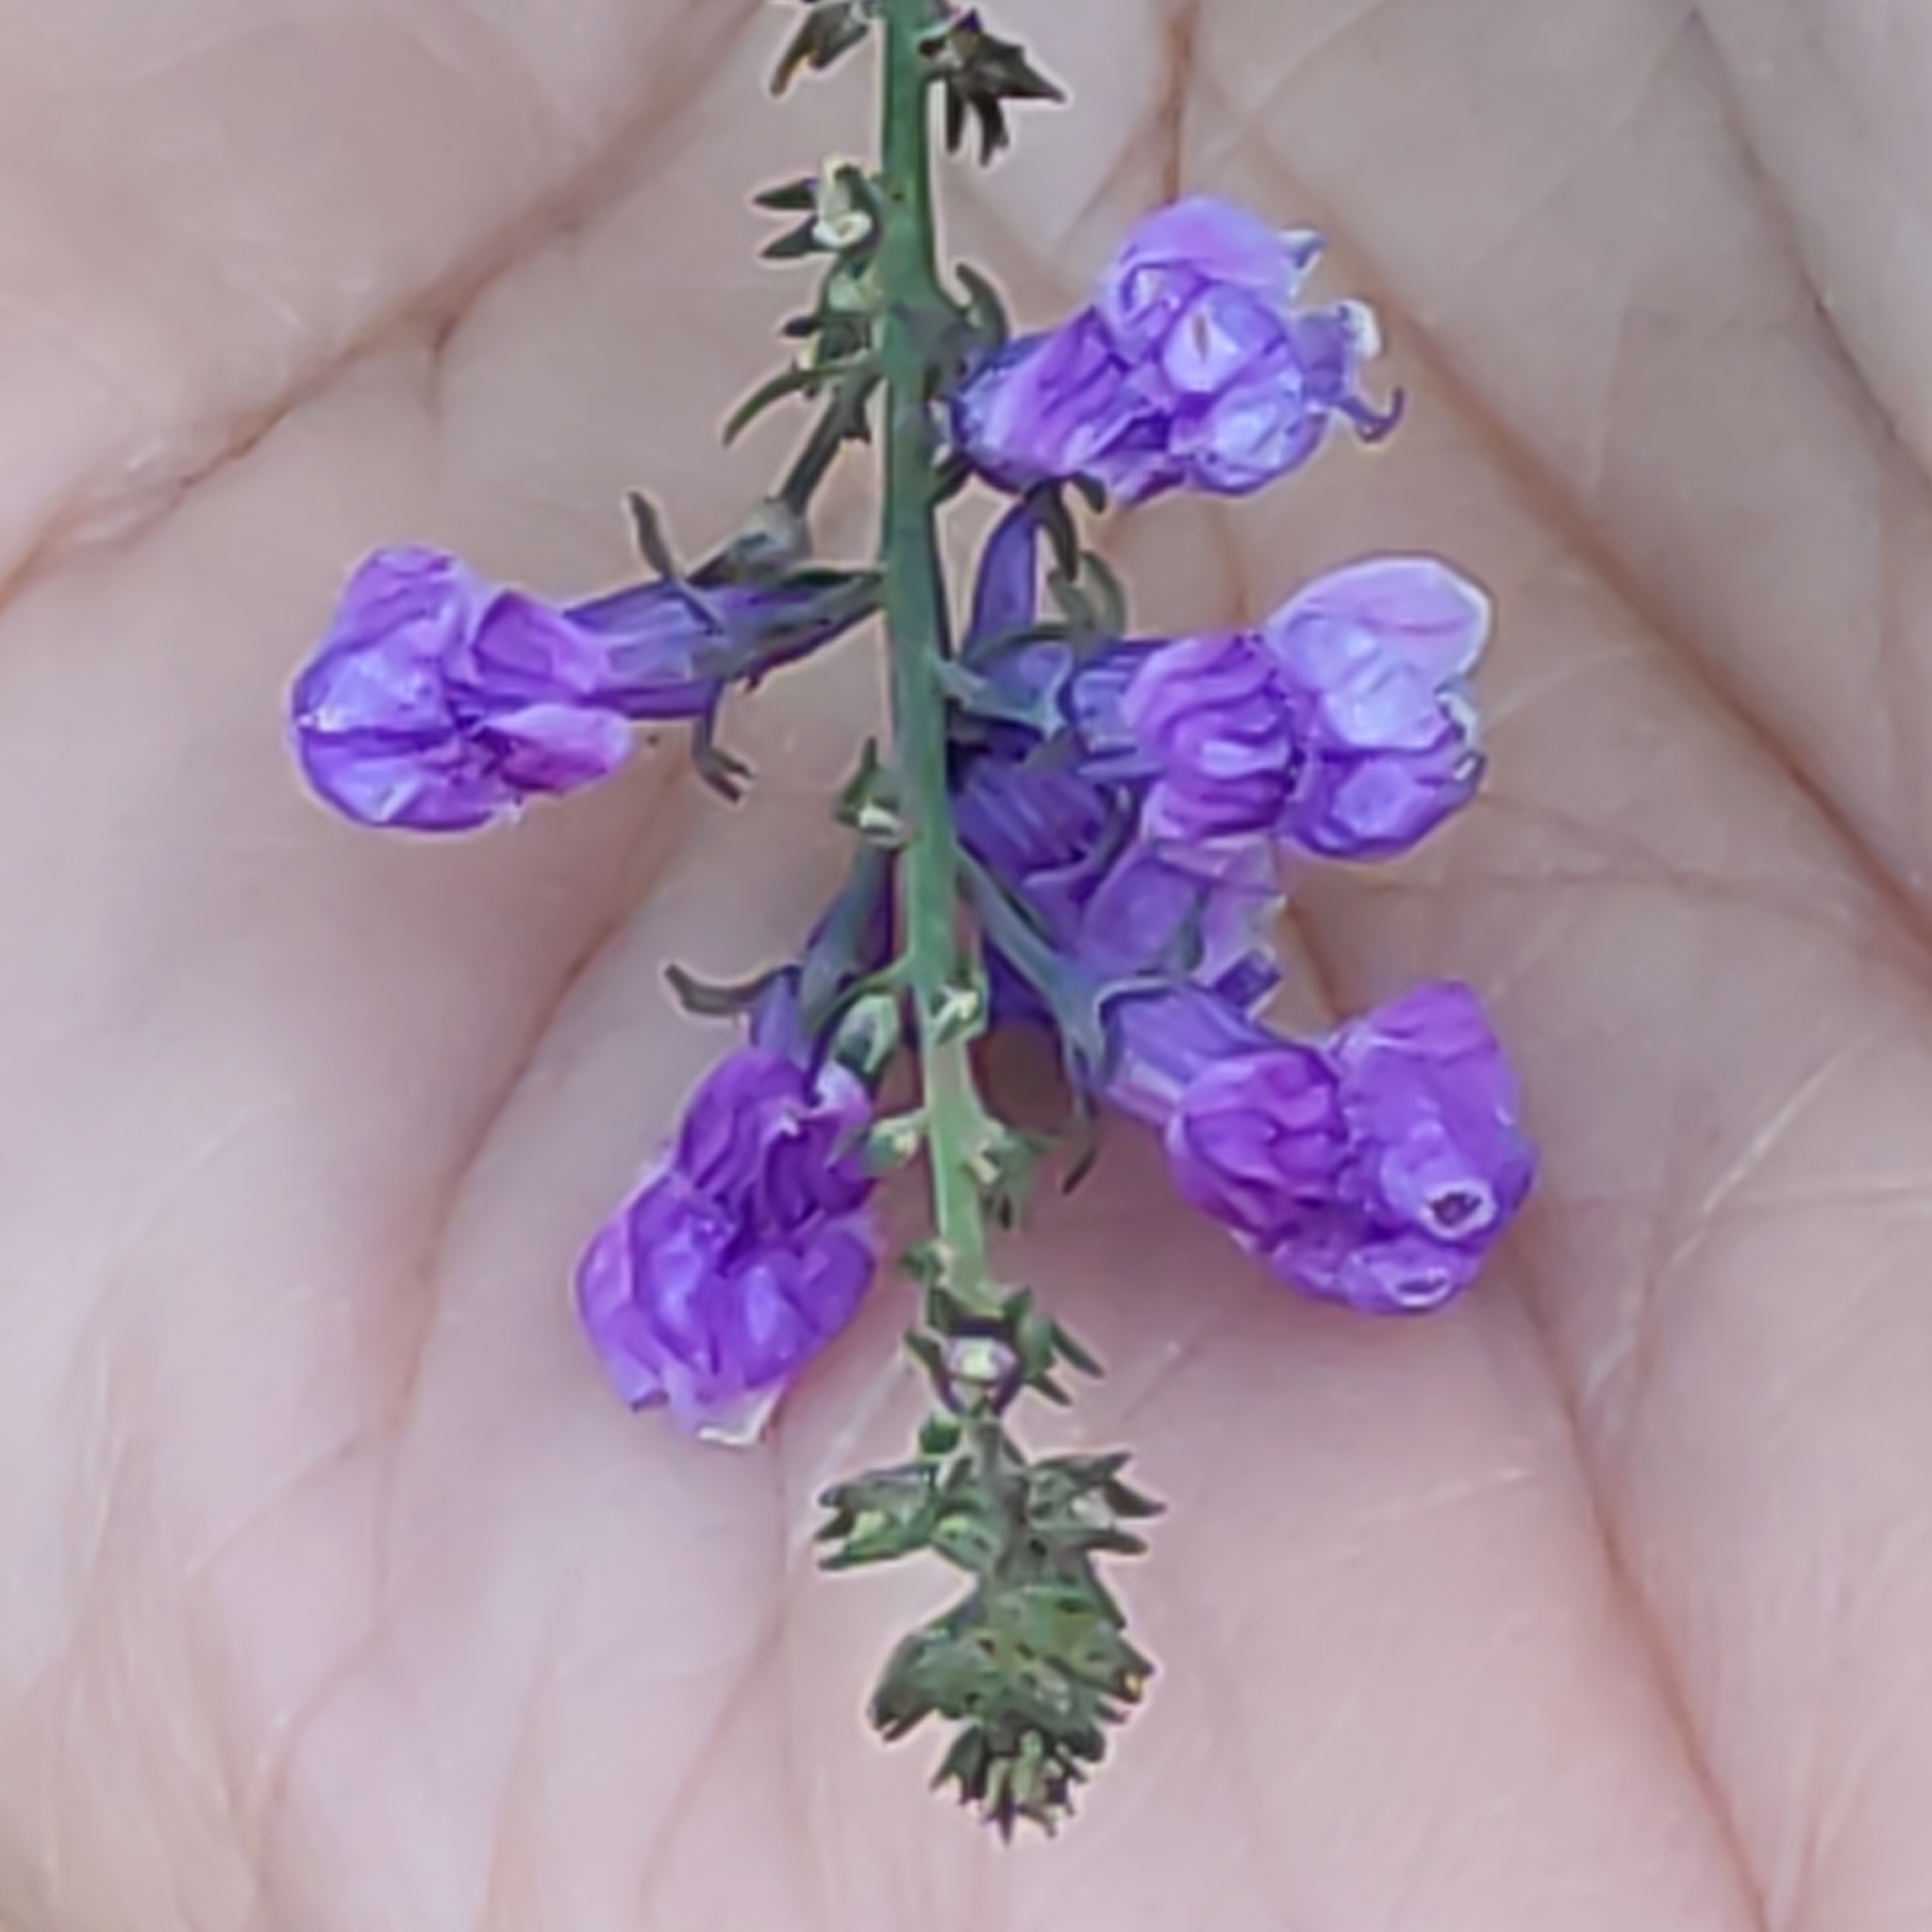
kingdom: Plantae
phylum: Tracheophyta
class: Magnoliopsida
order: Lamiales
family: Plantaginaceae
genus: Linaria
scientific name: Linaria purpurea
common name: Purple toadflax
